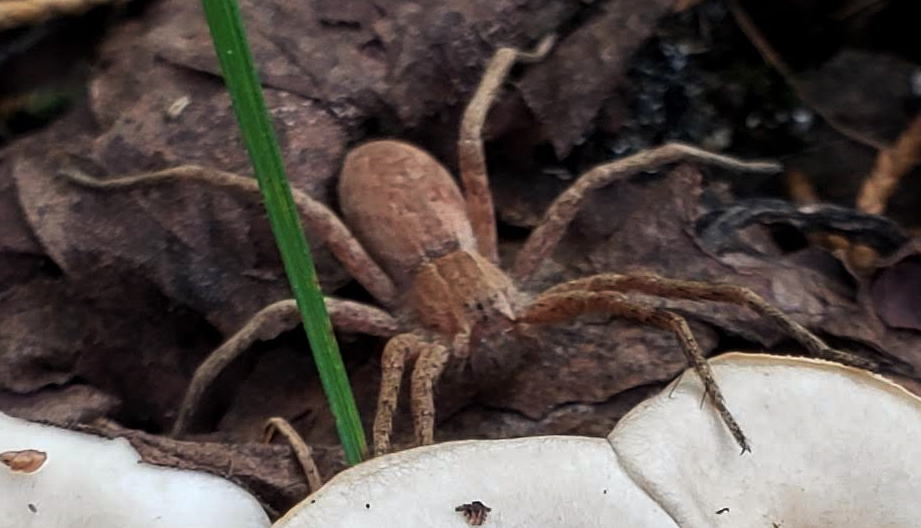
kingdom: Animalia
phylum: Arthropoda
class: Arachnida
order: Araneae
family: Pisauridae
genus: Pisaurina
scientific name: Pisaurina mira
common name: American nursery web spider
